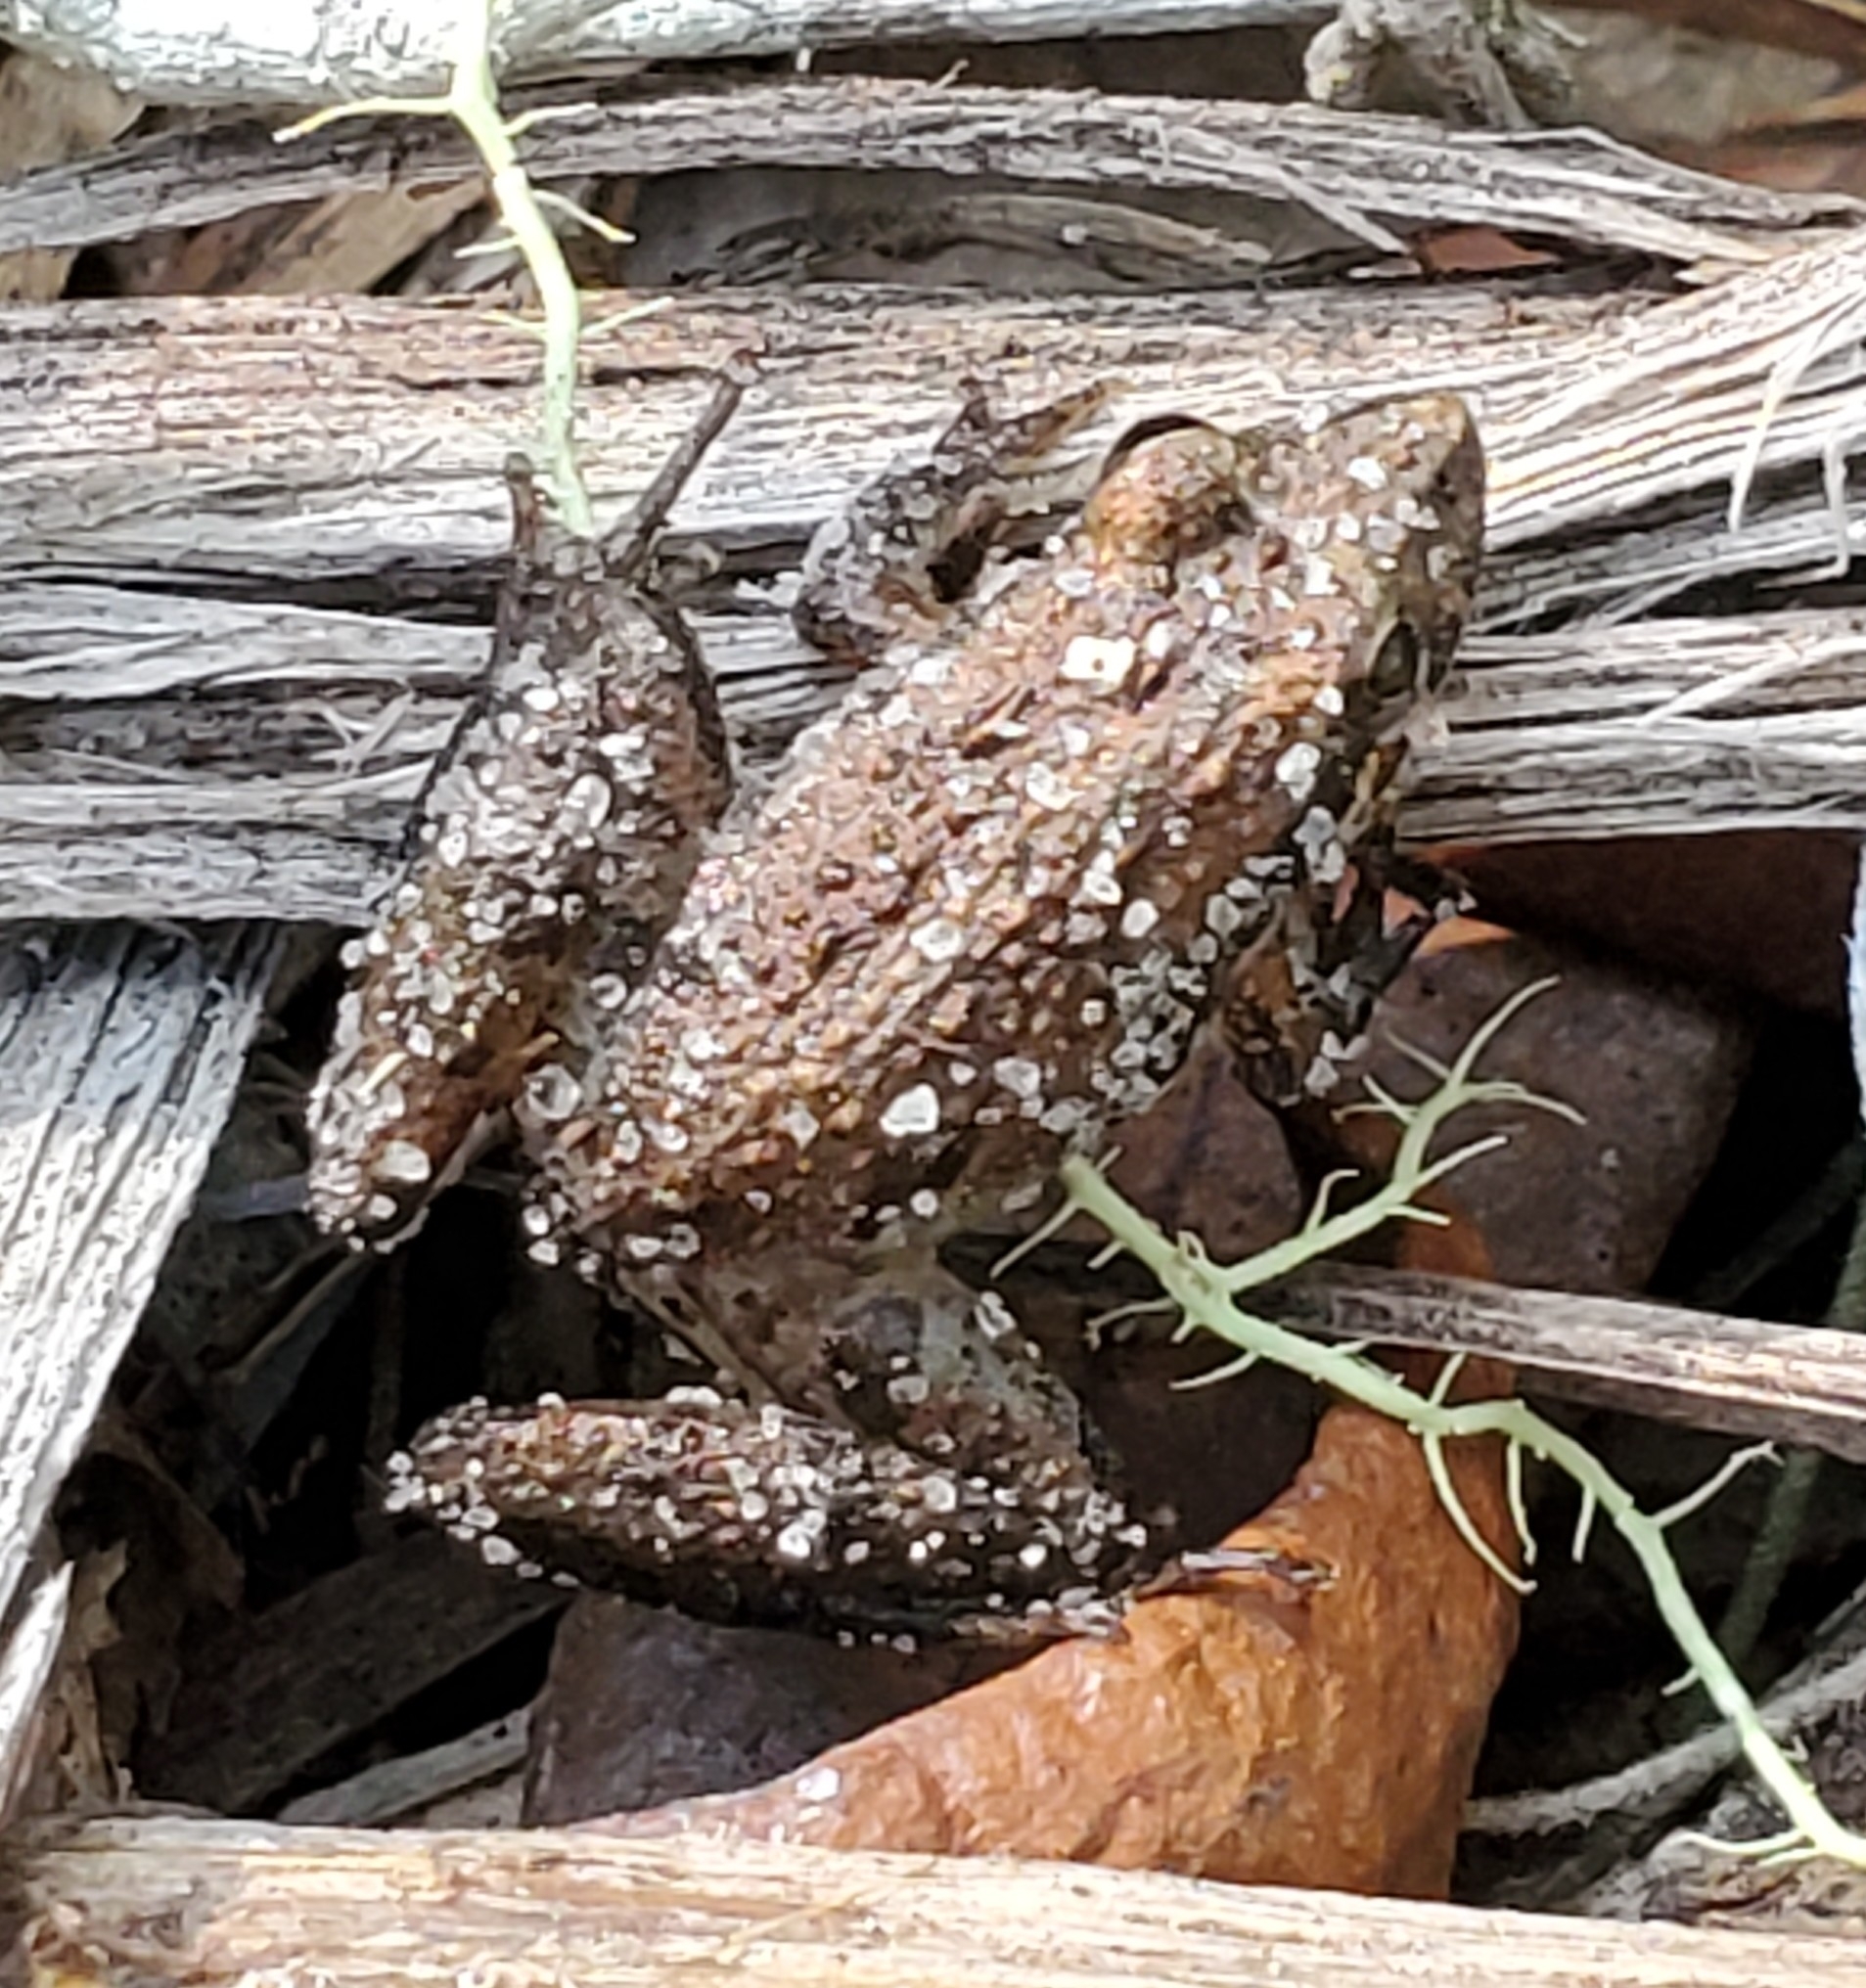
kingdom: Animalia
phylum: Chordata
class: Amphibia
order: Anura
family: Hylidae
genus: Acris
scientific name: Acris gryllus
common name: Southern cricket frog
